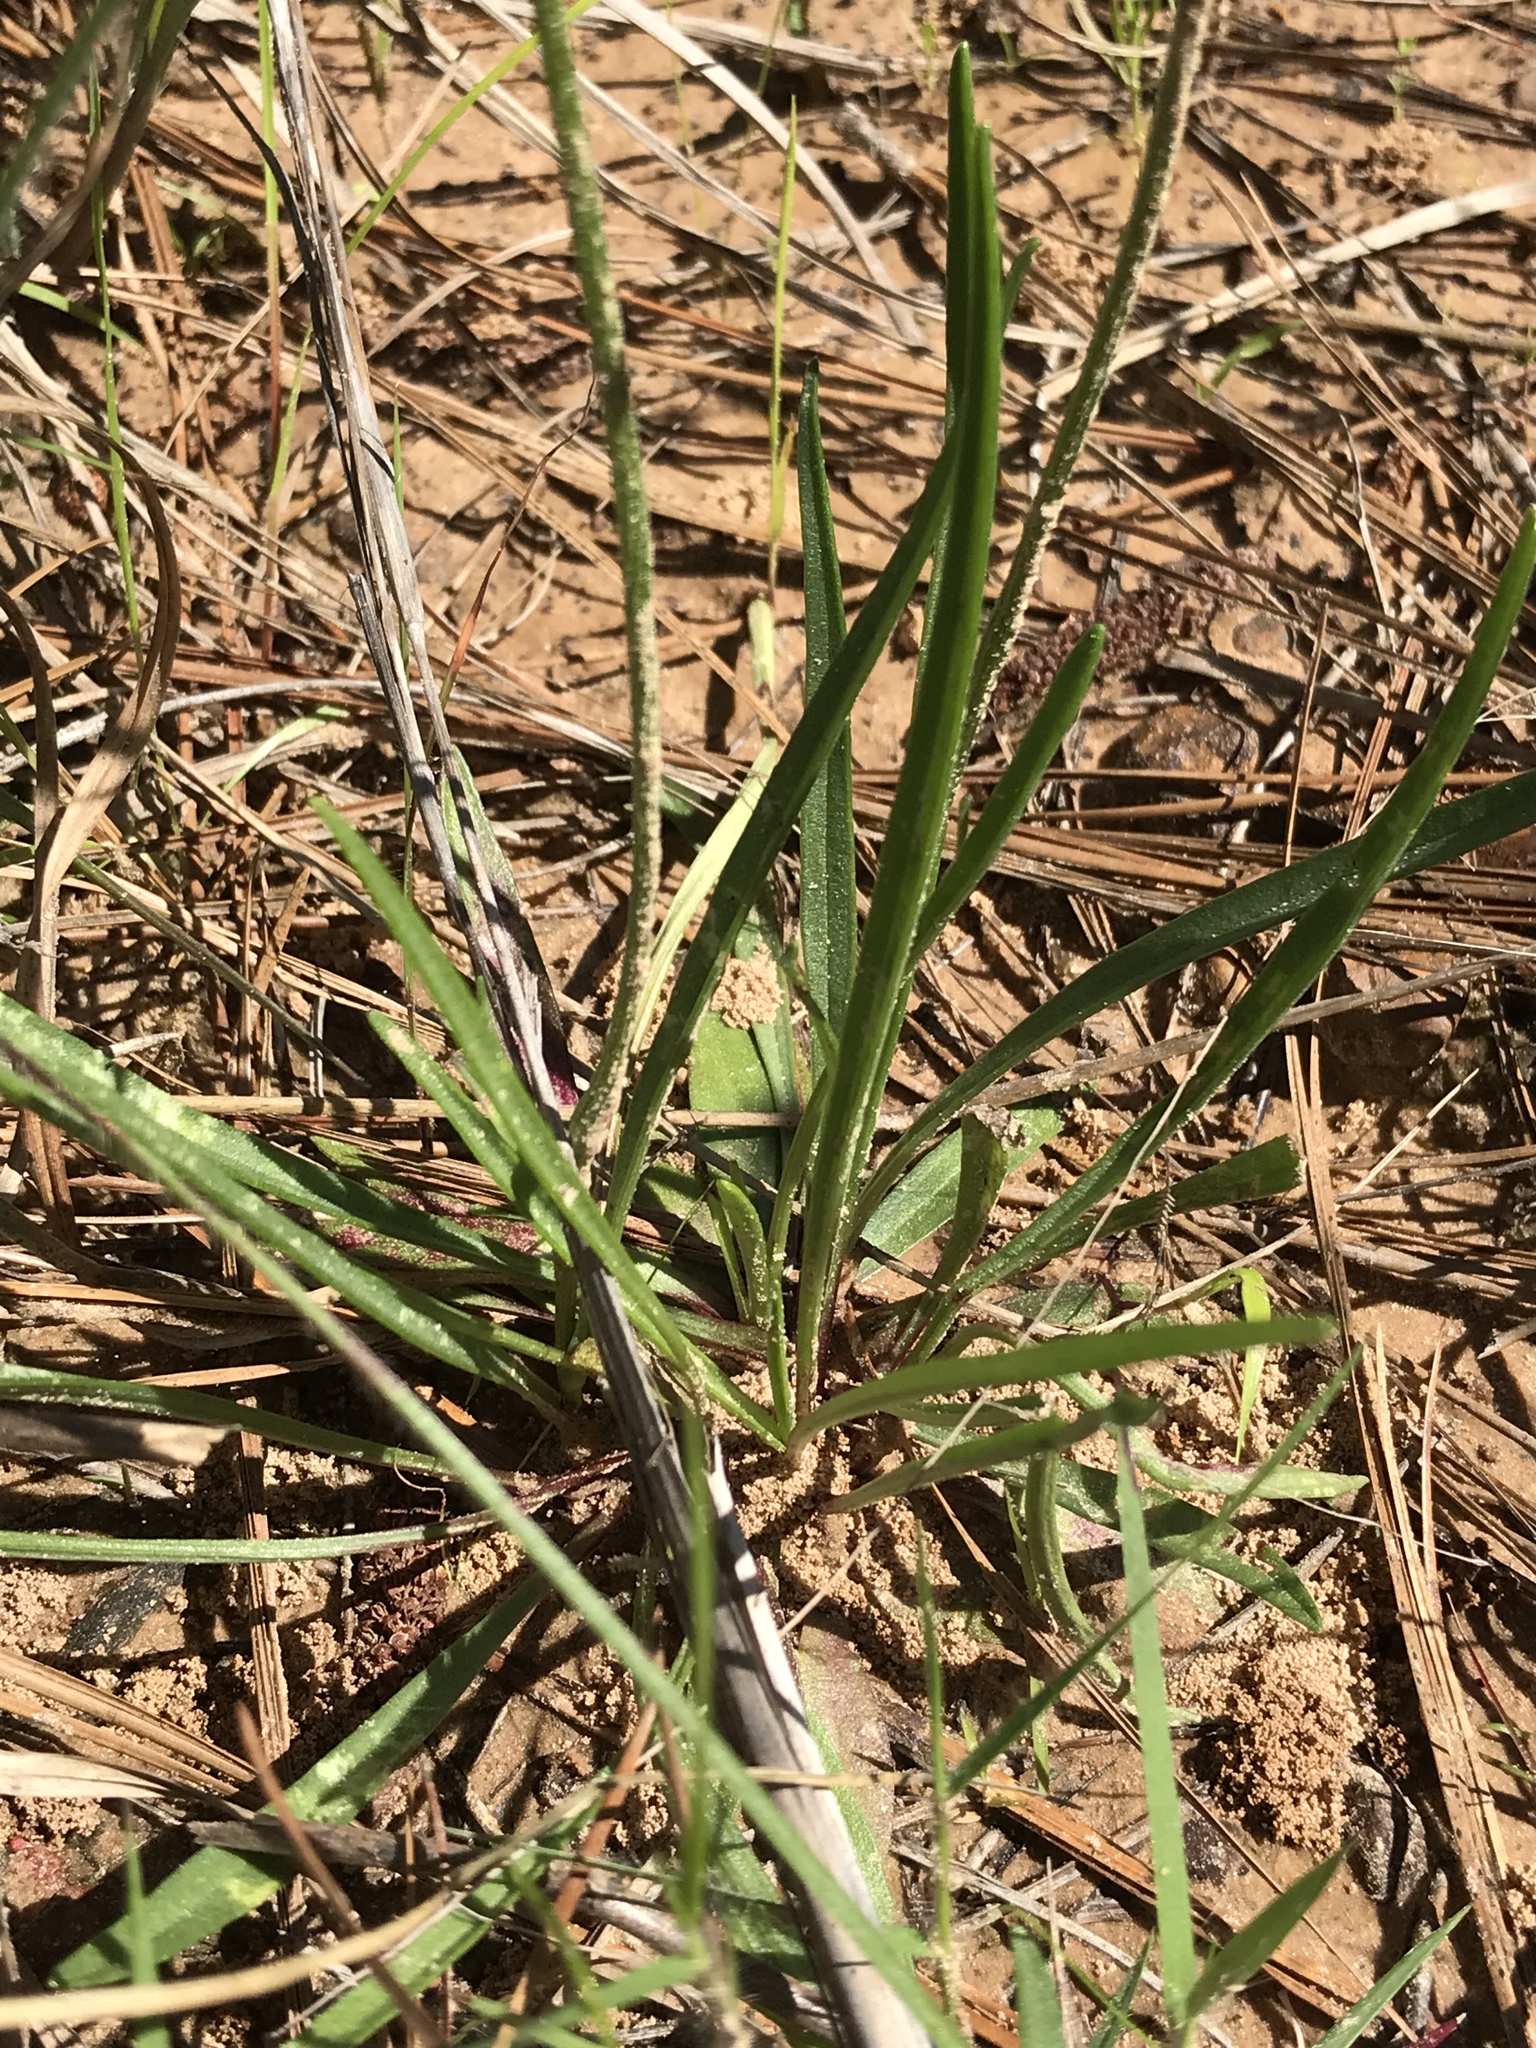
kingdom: Plantae
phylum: Tracheophyta
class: Magnoliopsida
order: Asterales
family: Asteraceae
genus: Marshallia
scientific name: Marshallia caespitosa
